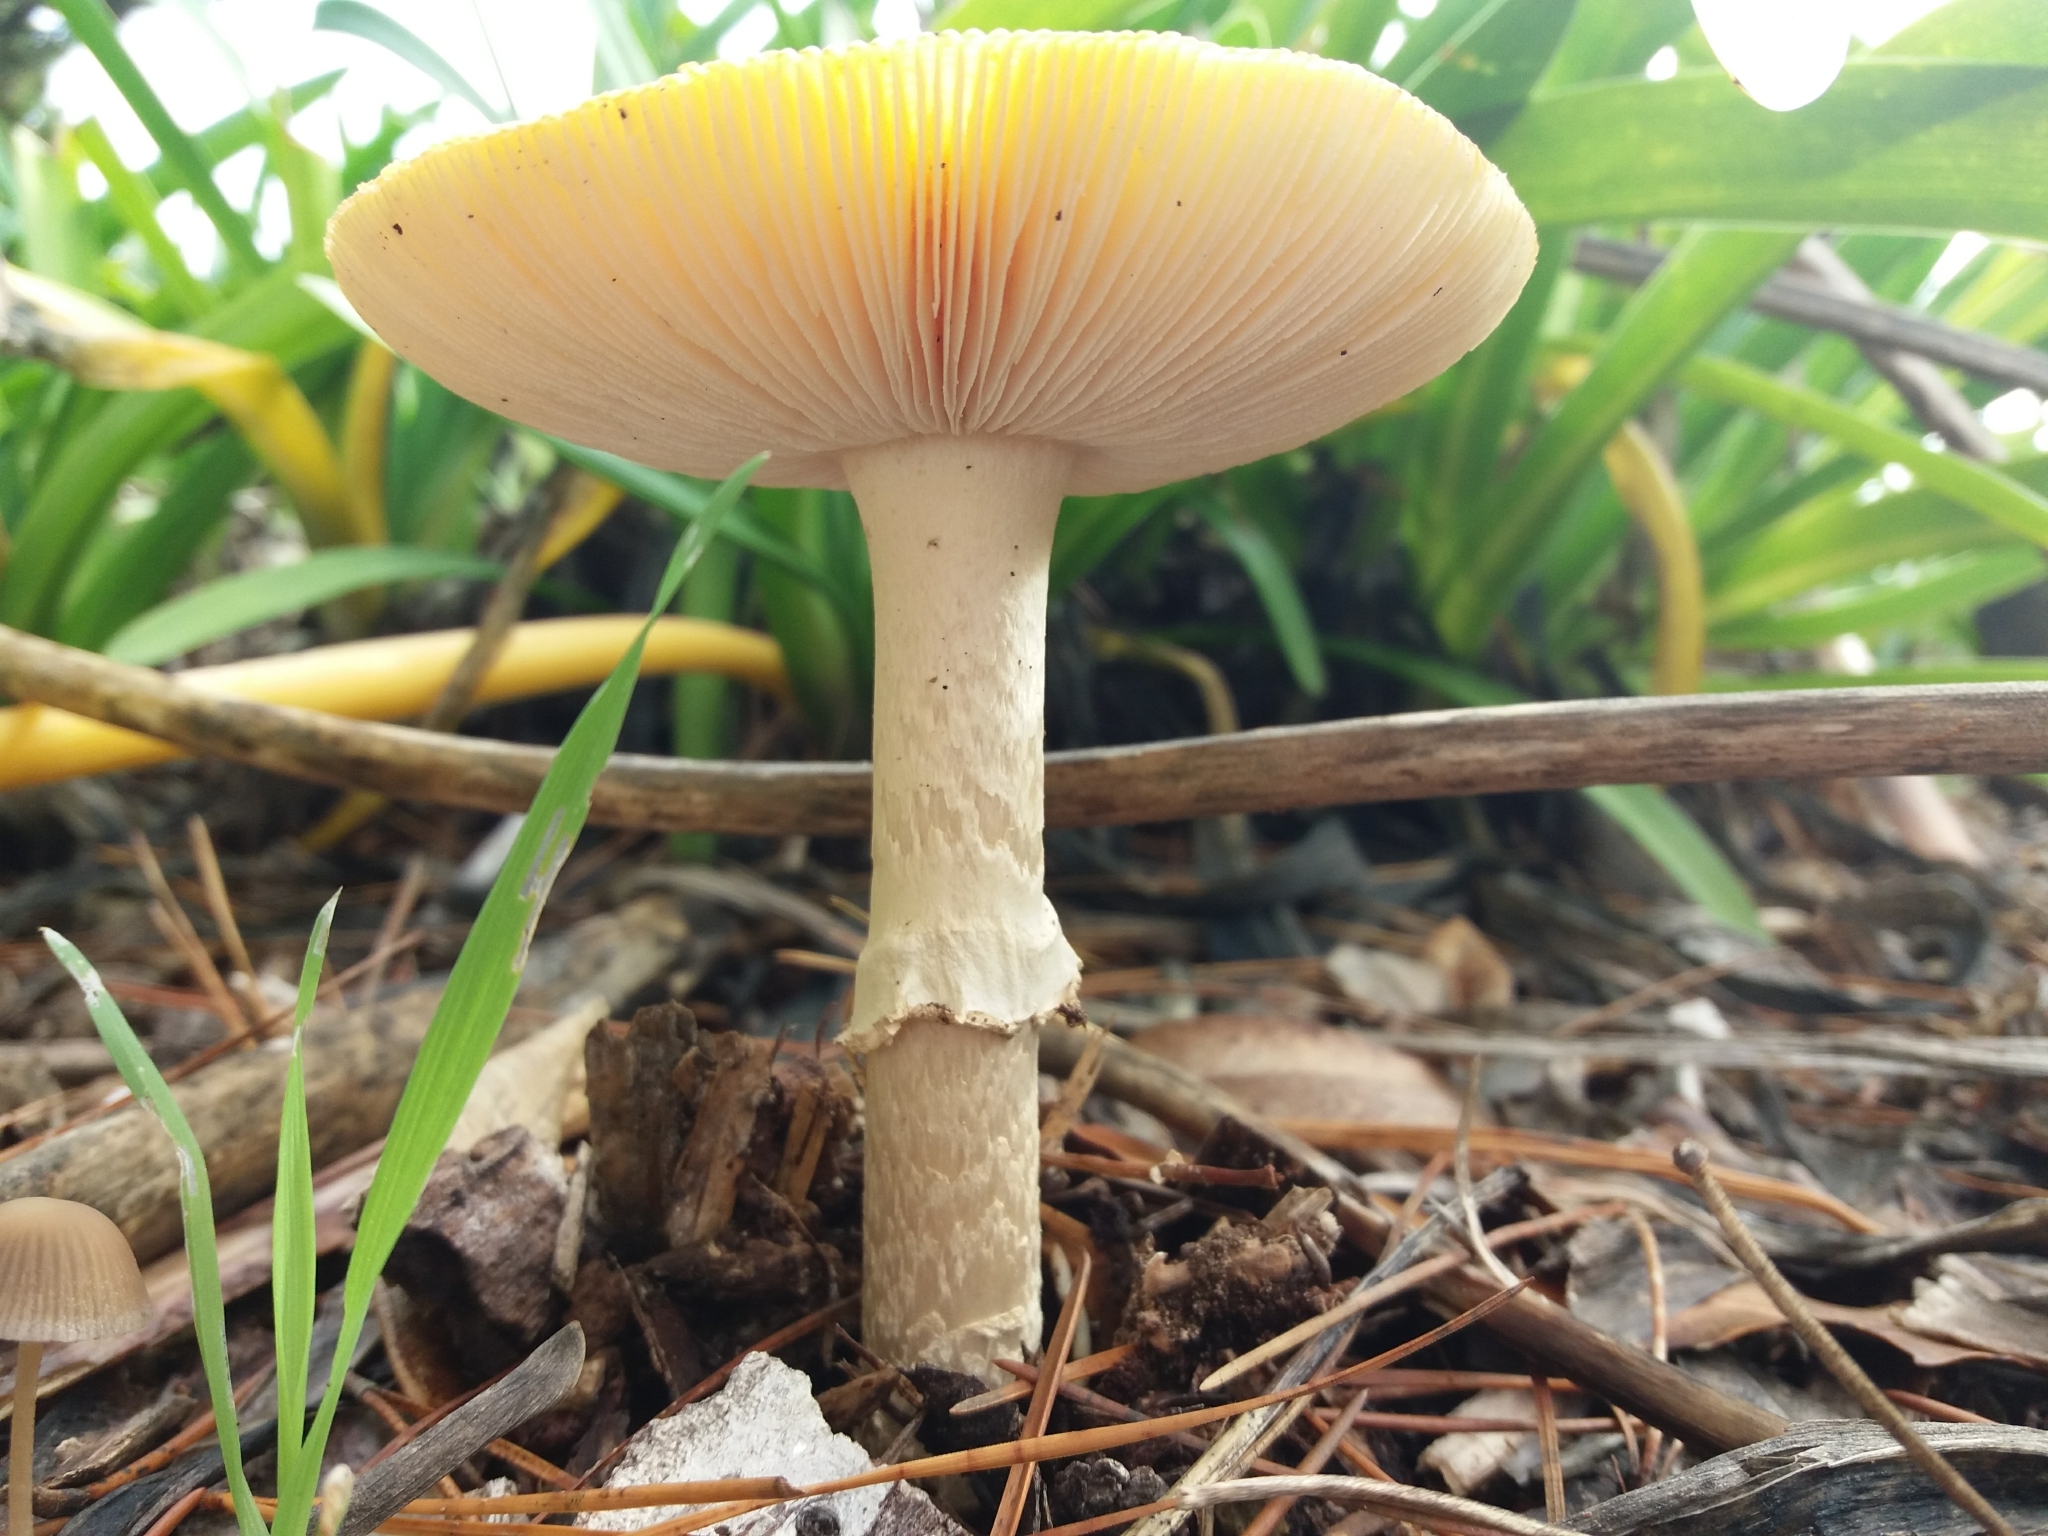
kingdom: Fungi
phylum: Basidiomycota
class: Agaricomycetes
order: Agaricales
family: Amanitaceae
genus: Amanita
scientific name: Amanita muscaria
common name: Fly agaric
